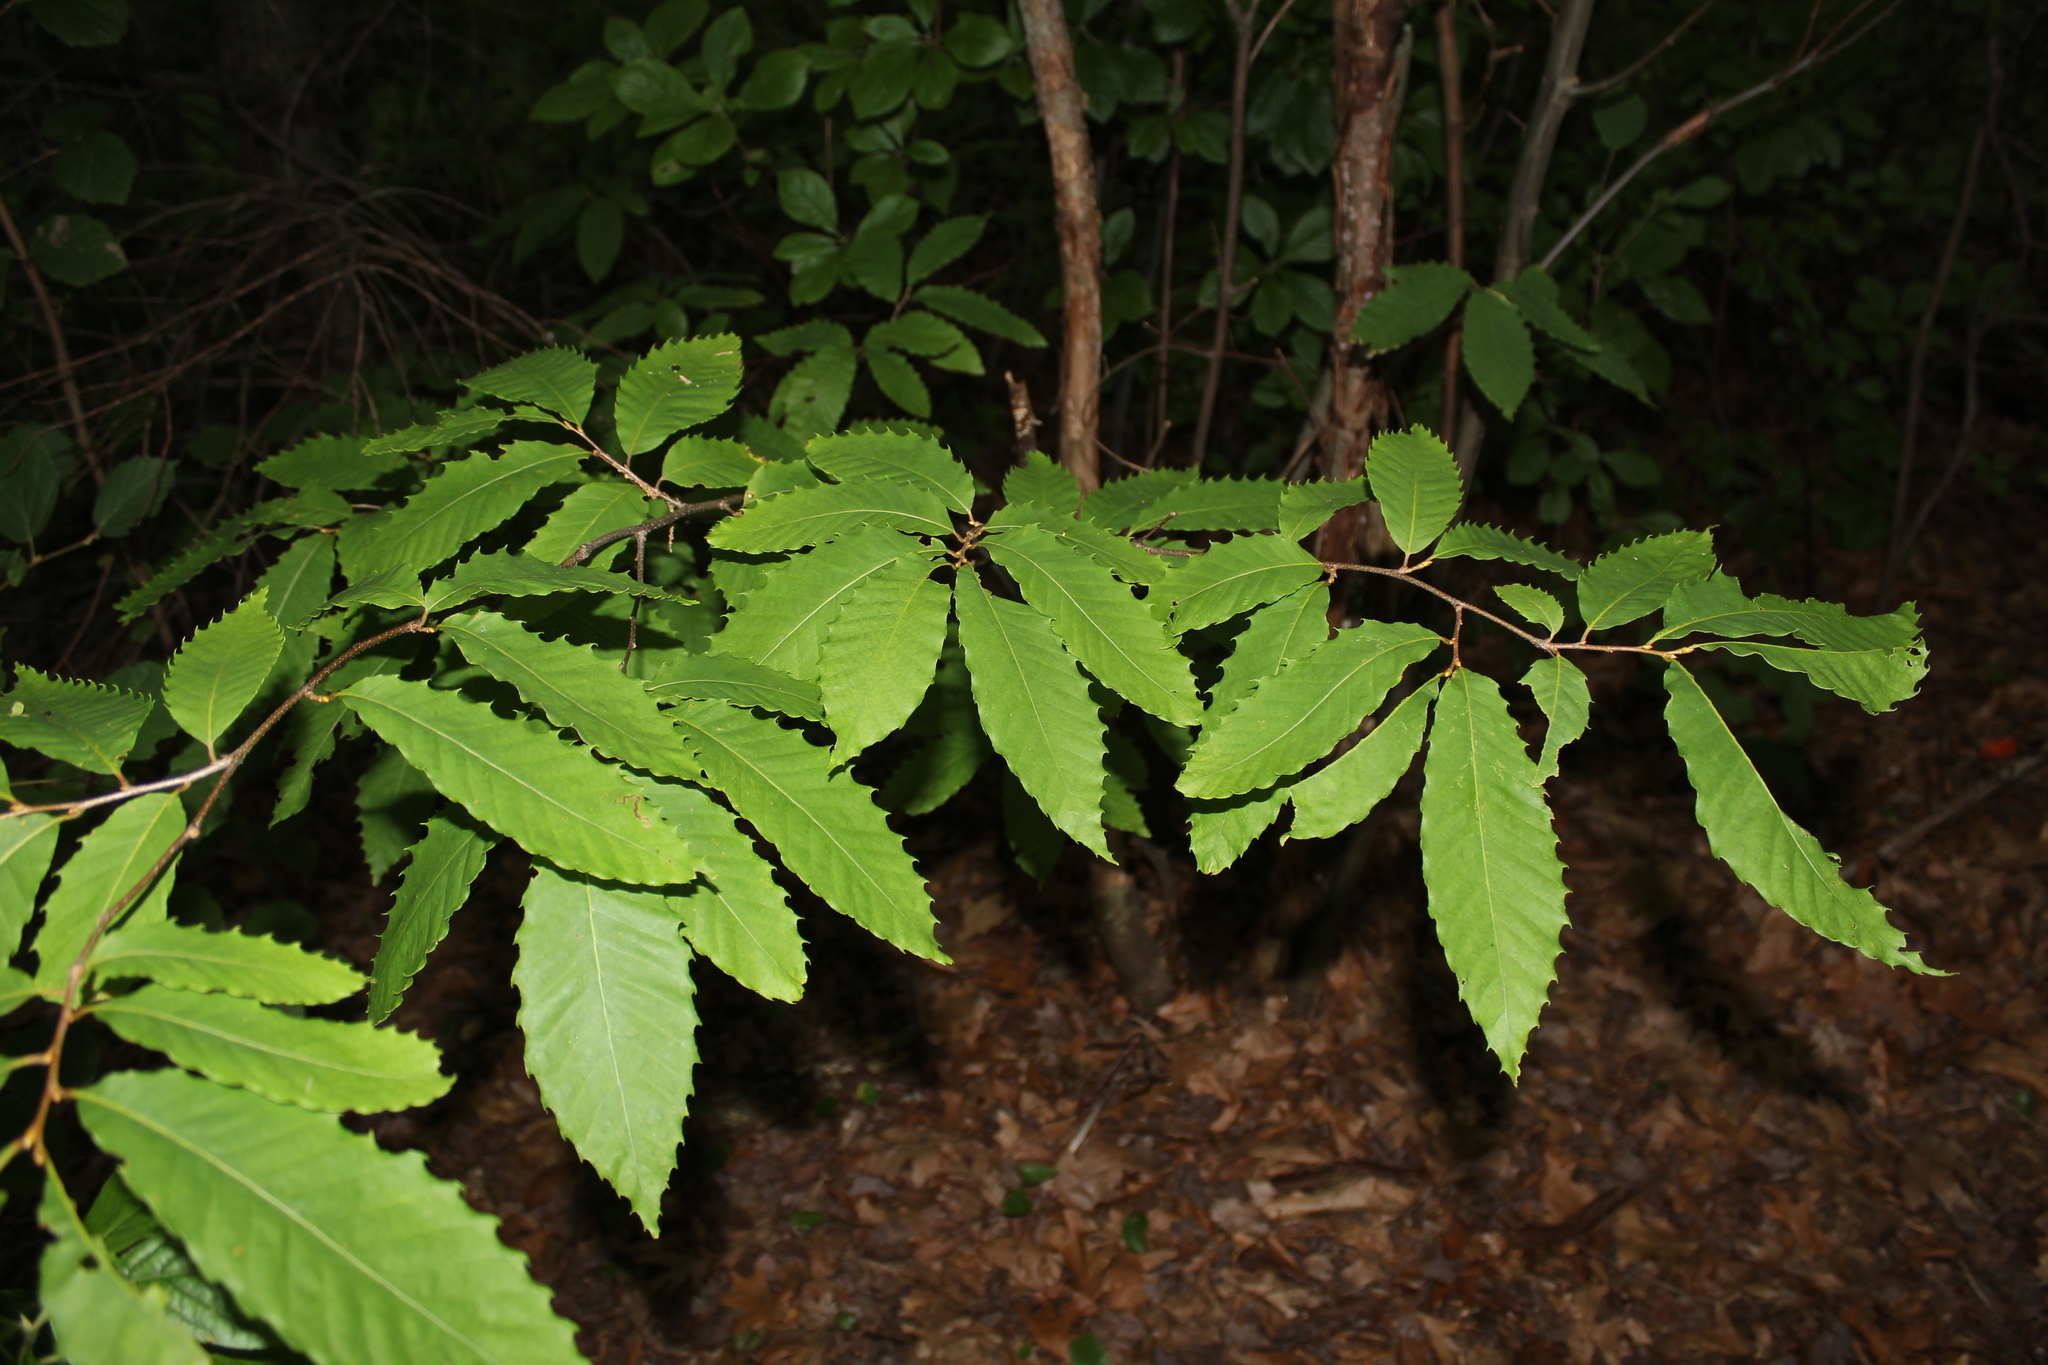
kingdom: Plantae
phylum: Tracheophyta
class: Magnoliopsida
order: Fagales
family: Fagaceae
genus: Castanea
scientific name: Castanea dentata
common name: American chestnut
